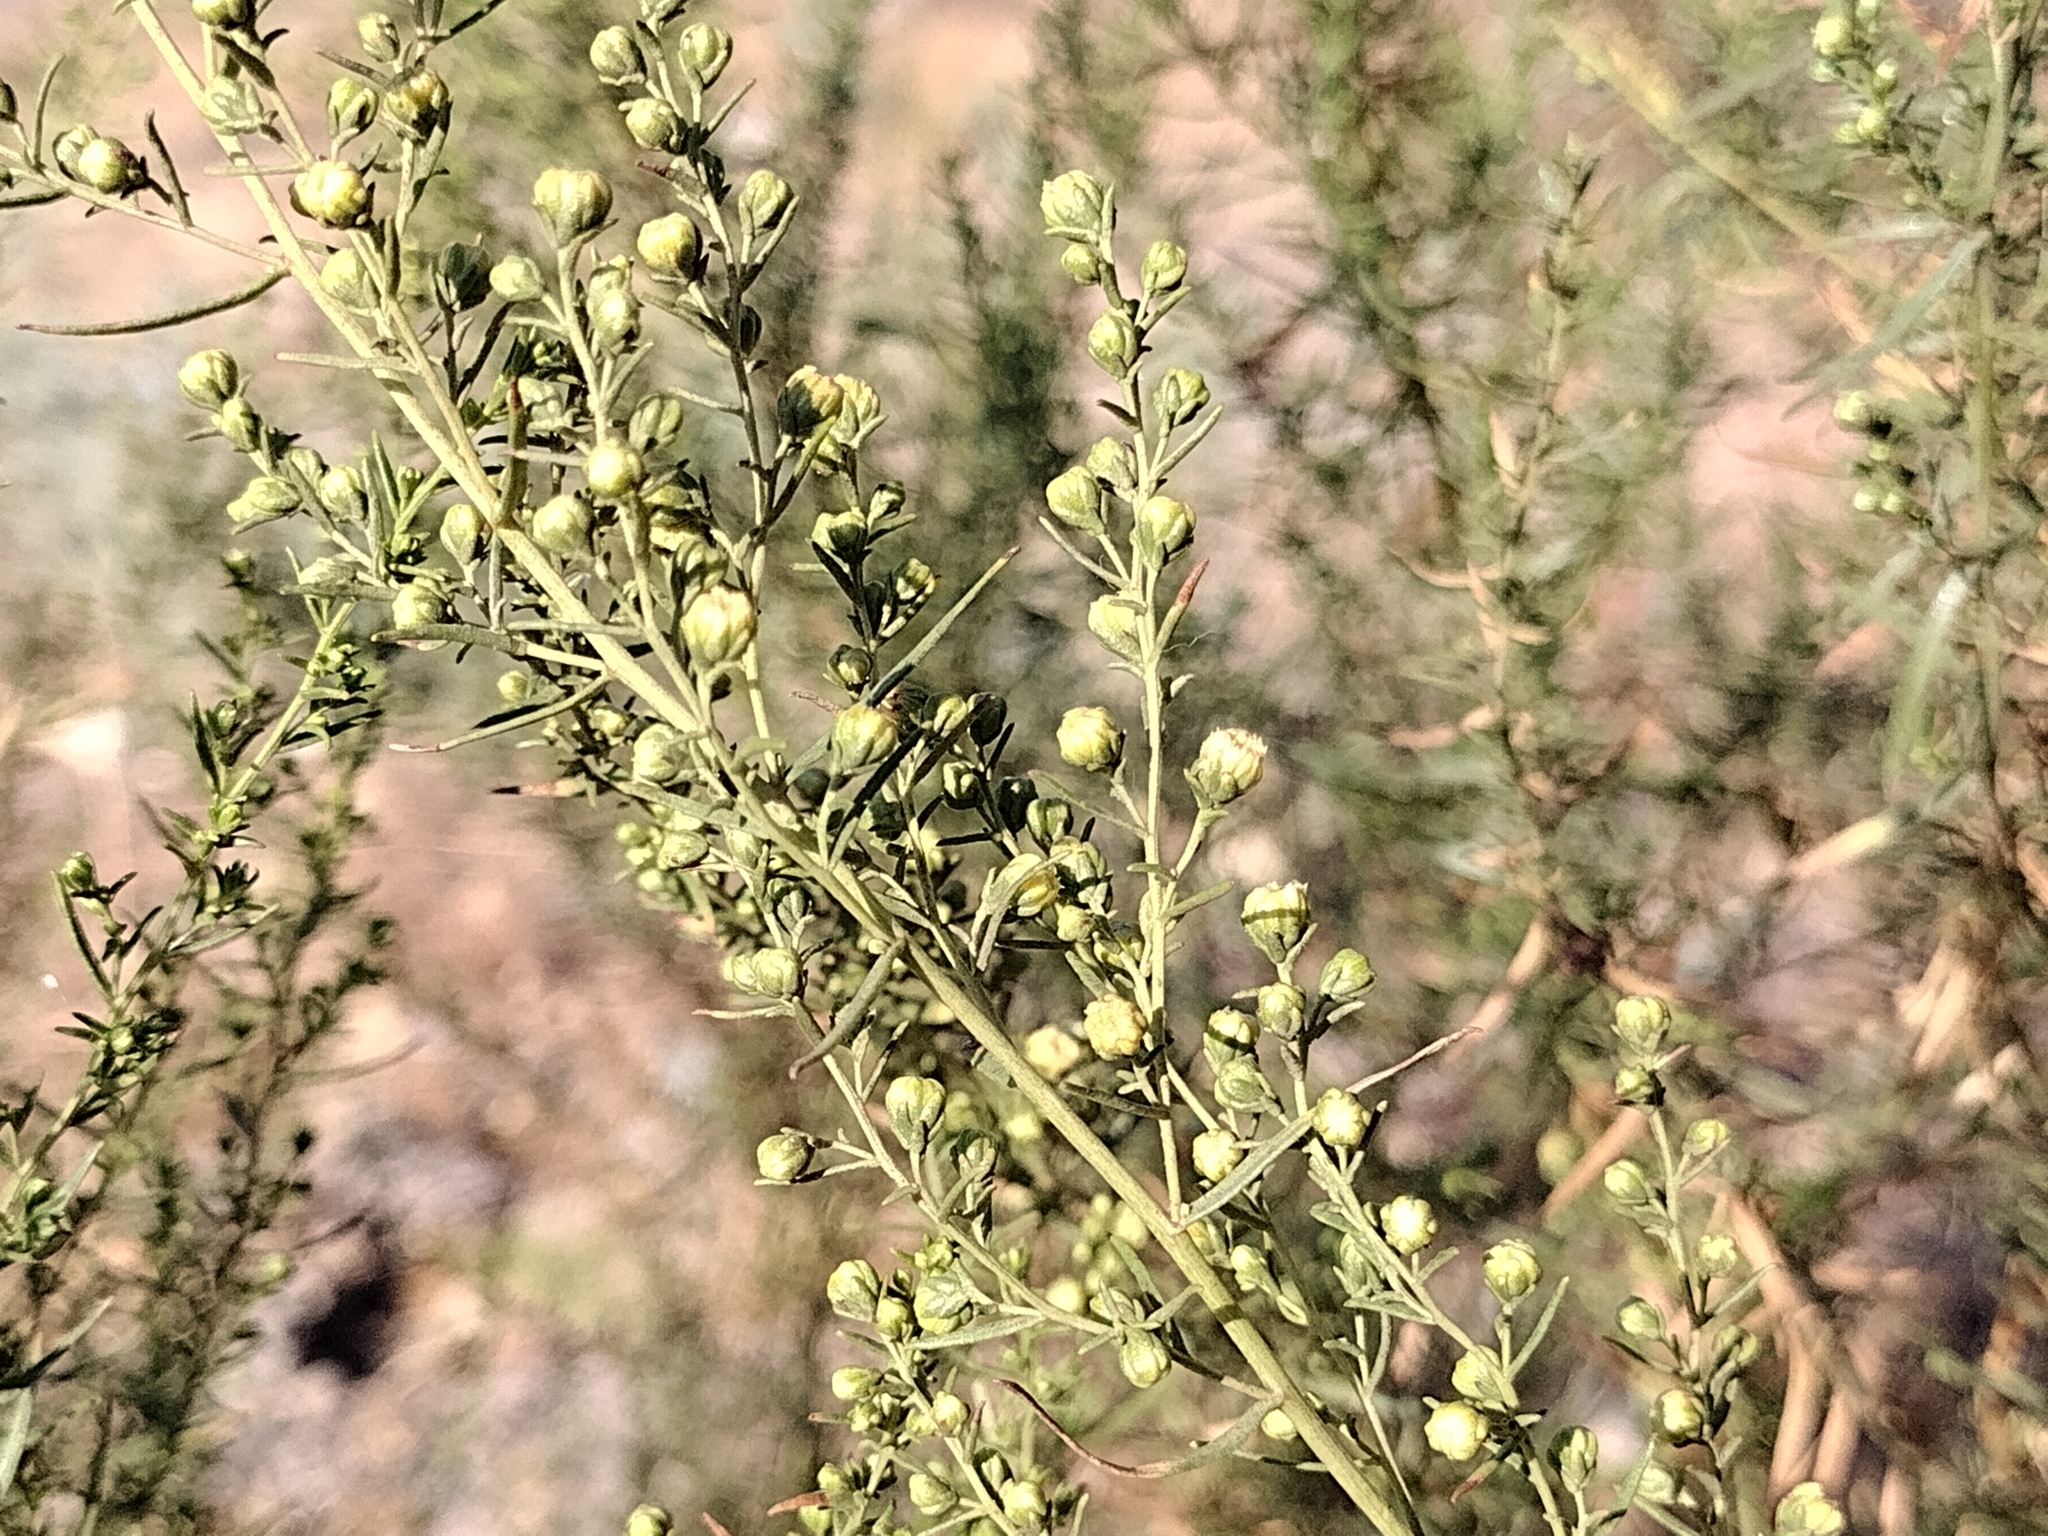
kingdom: Plantae
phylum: Tracheophyta
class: Magnoliopsida
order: Asterales
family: Asteraceae
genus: Artemisia
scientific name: Artemisia dracunculus
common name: Tarragon
